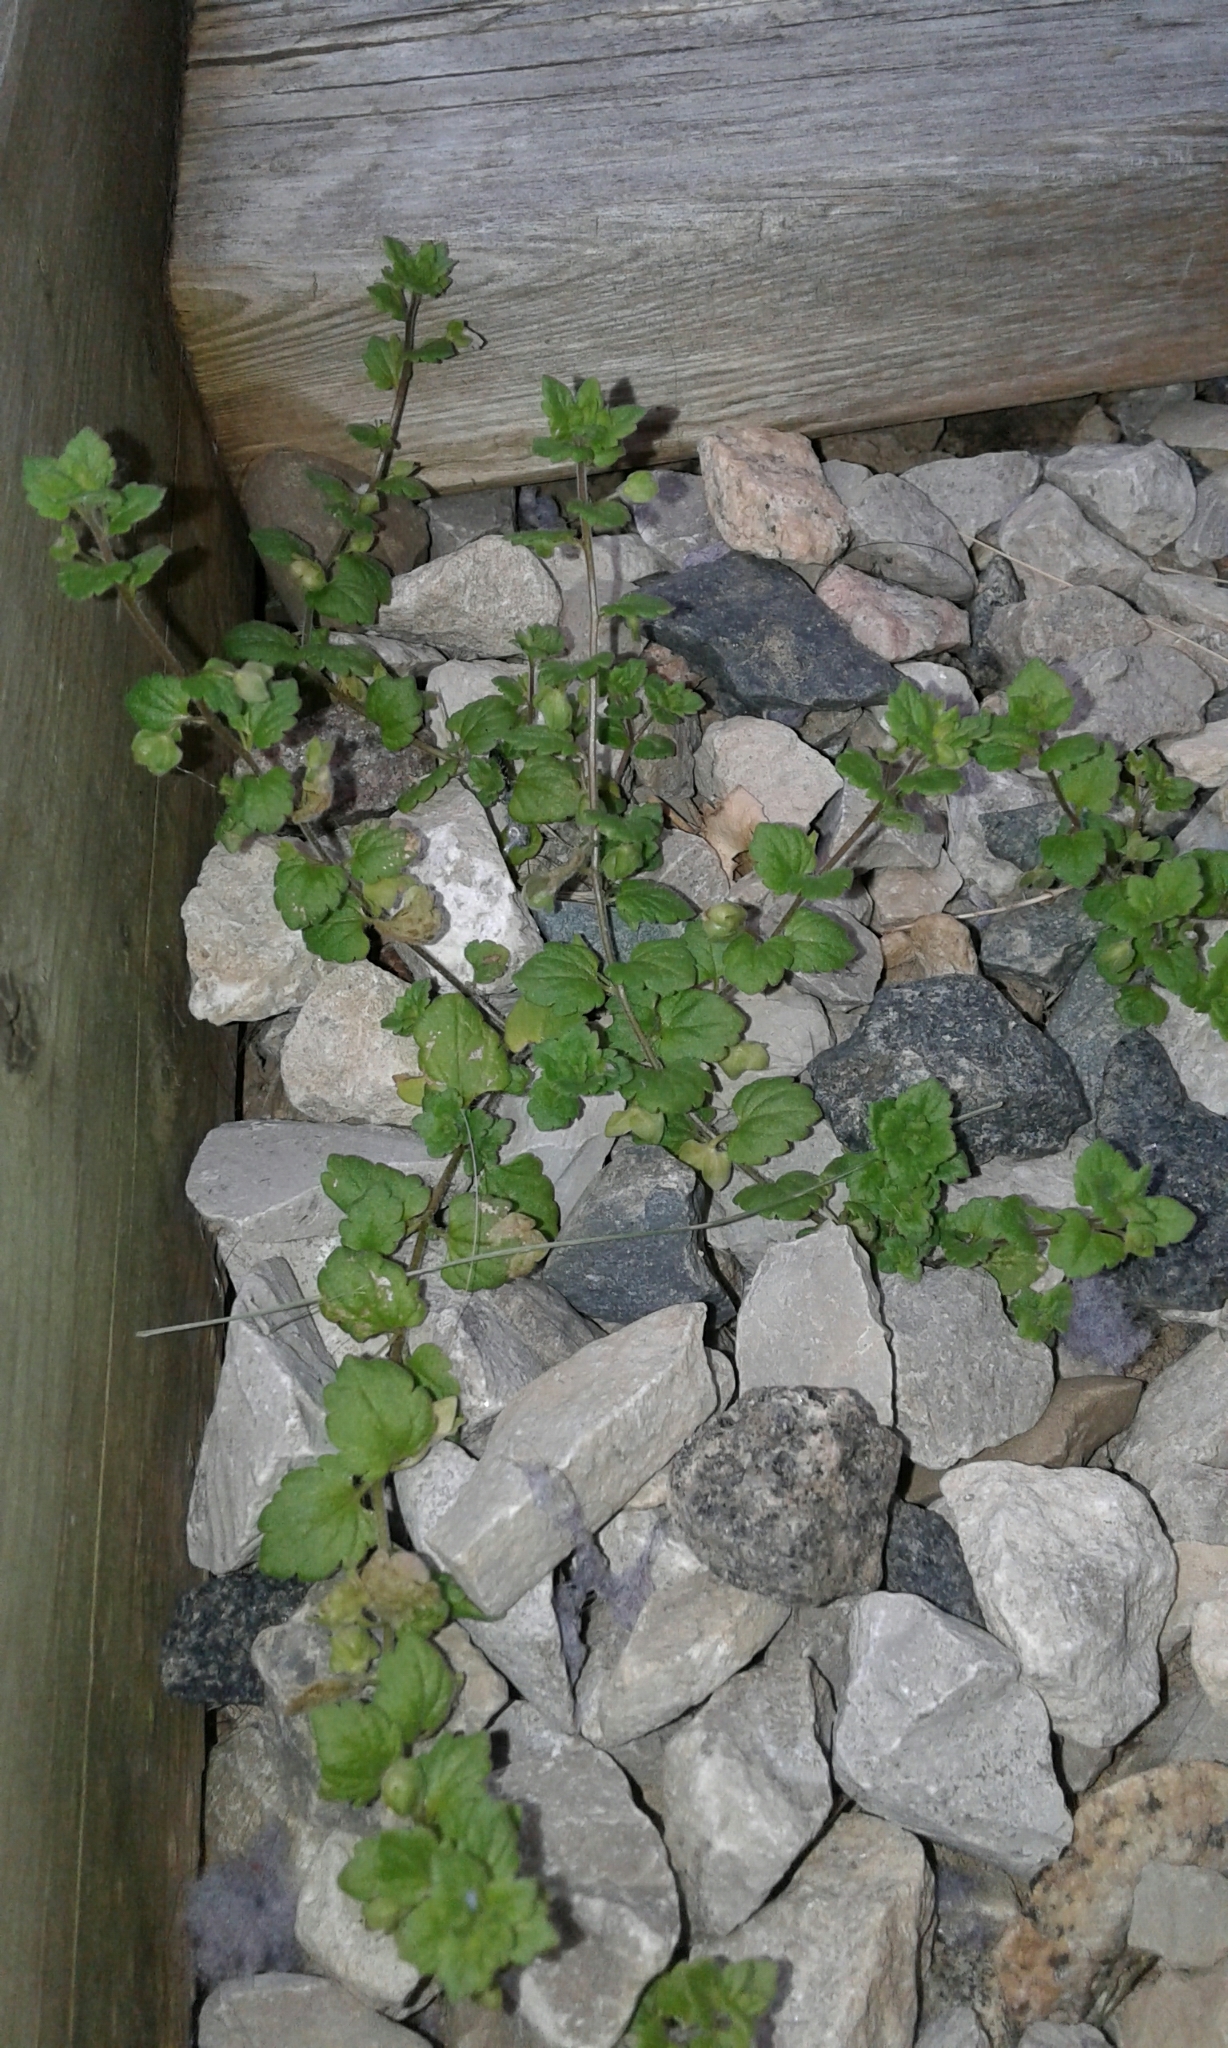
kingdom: Plantae
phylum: Tracheophyta
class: Magnoliopsida
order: Lamiales
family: Plantaginaceae
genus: Veronica
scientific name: Veronica polita
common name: Grey field-speedwell
